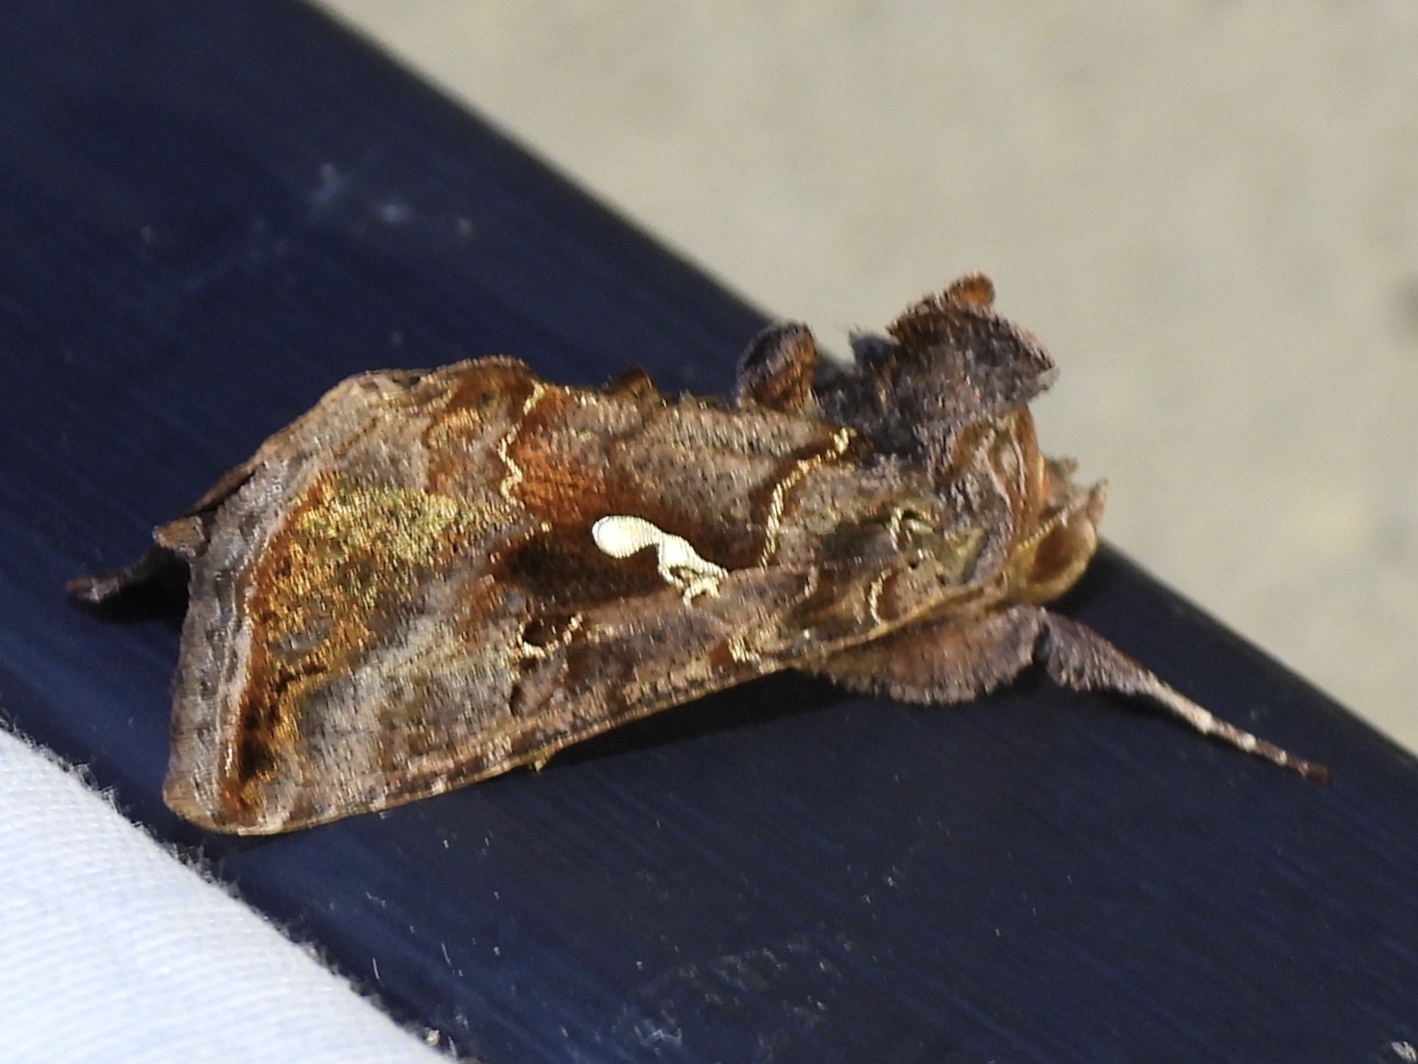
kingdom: Animalia
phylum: Arthropoda
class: Insecta
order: Lepidoptera
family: Noctuidae
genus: Autographa
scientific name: Autographa precationis
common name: Common looper moth
